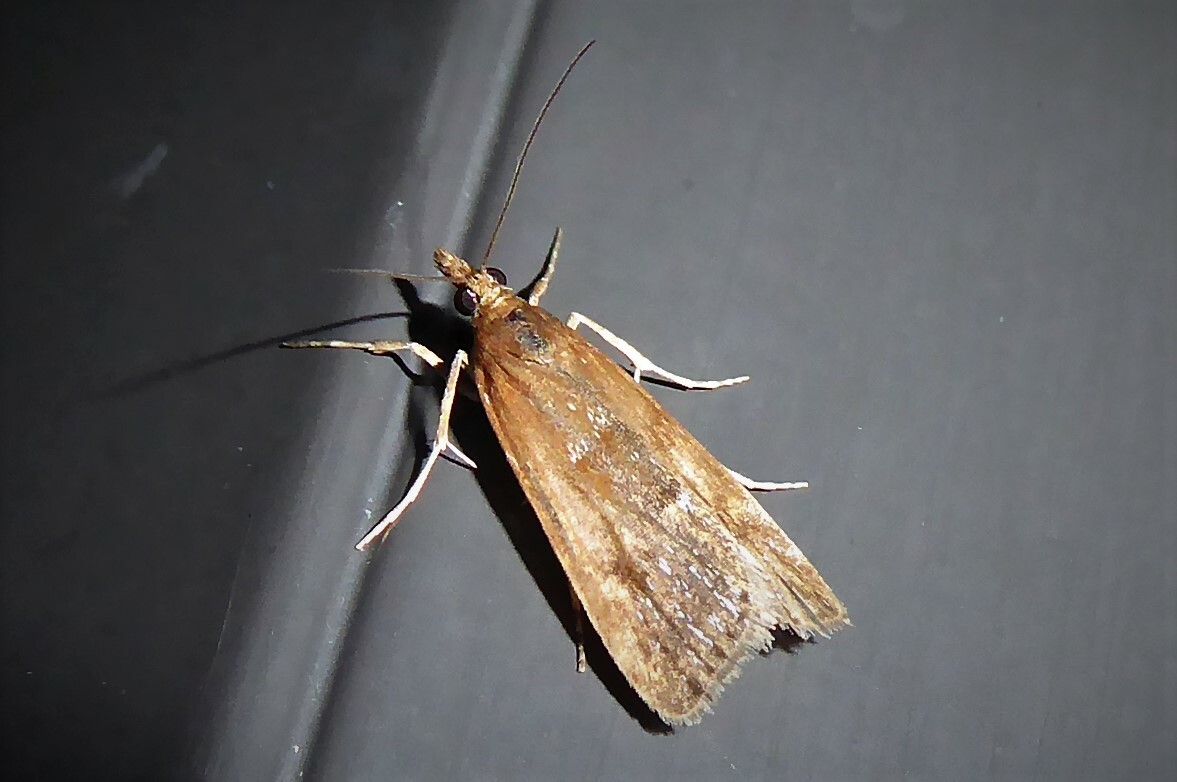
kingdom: Animalia
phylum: Arthropoda
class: Insecta
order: Lepidoptera
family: Crambidae
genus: Eudonia
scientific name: Eudonia feredayi
